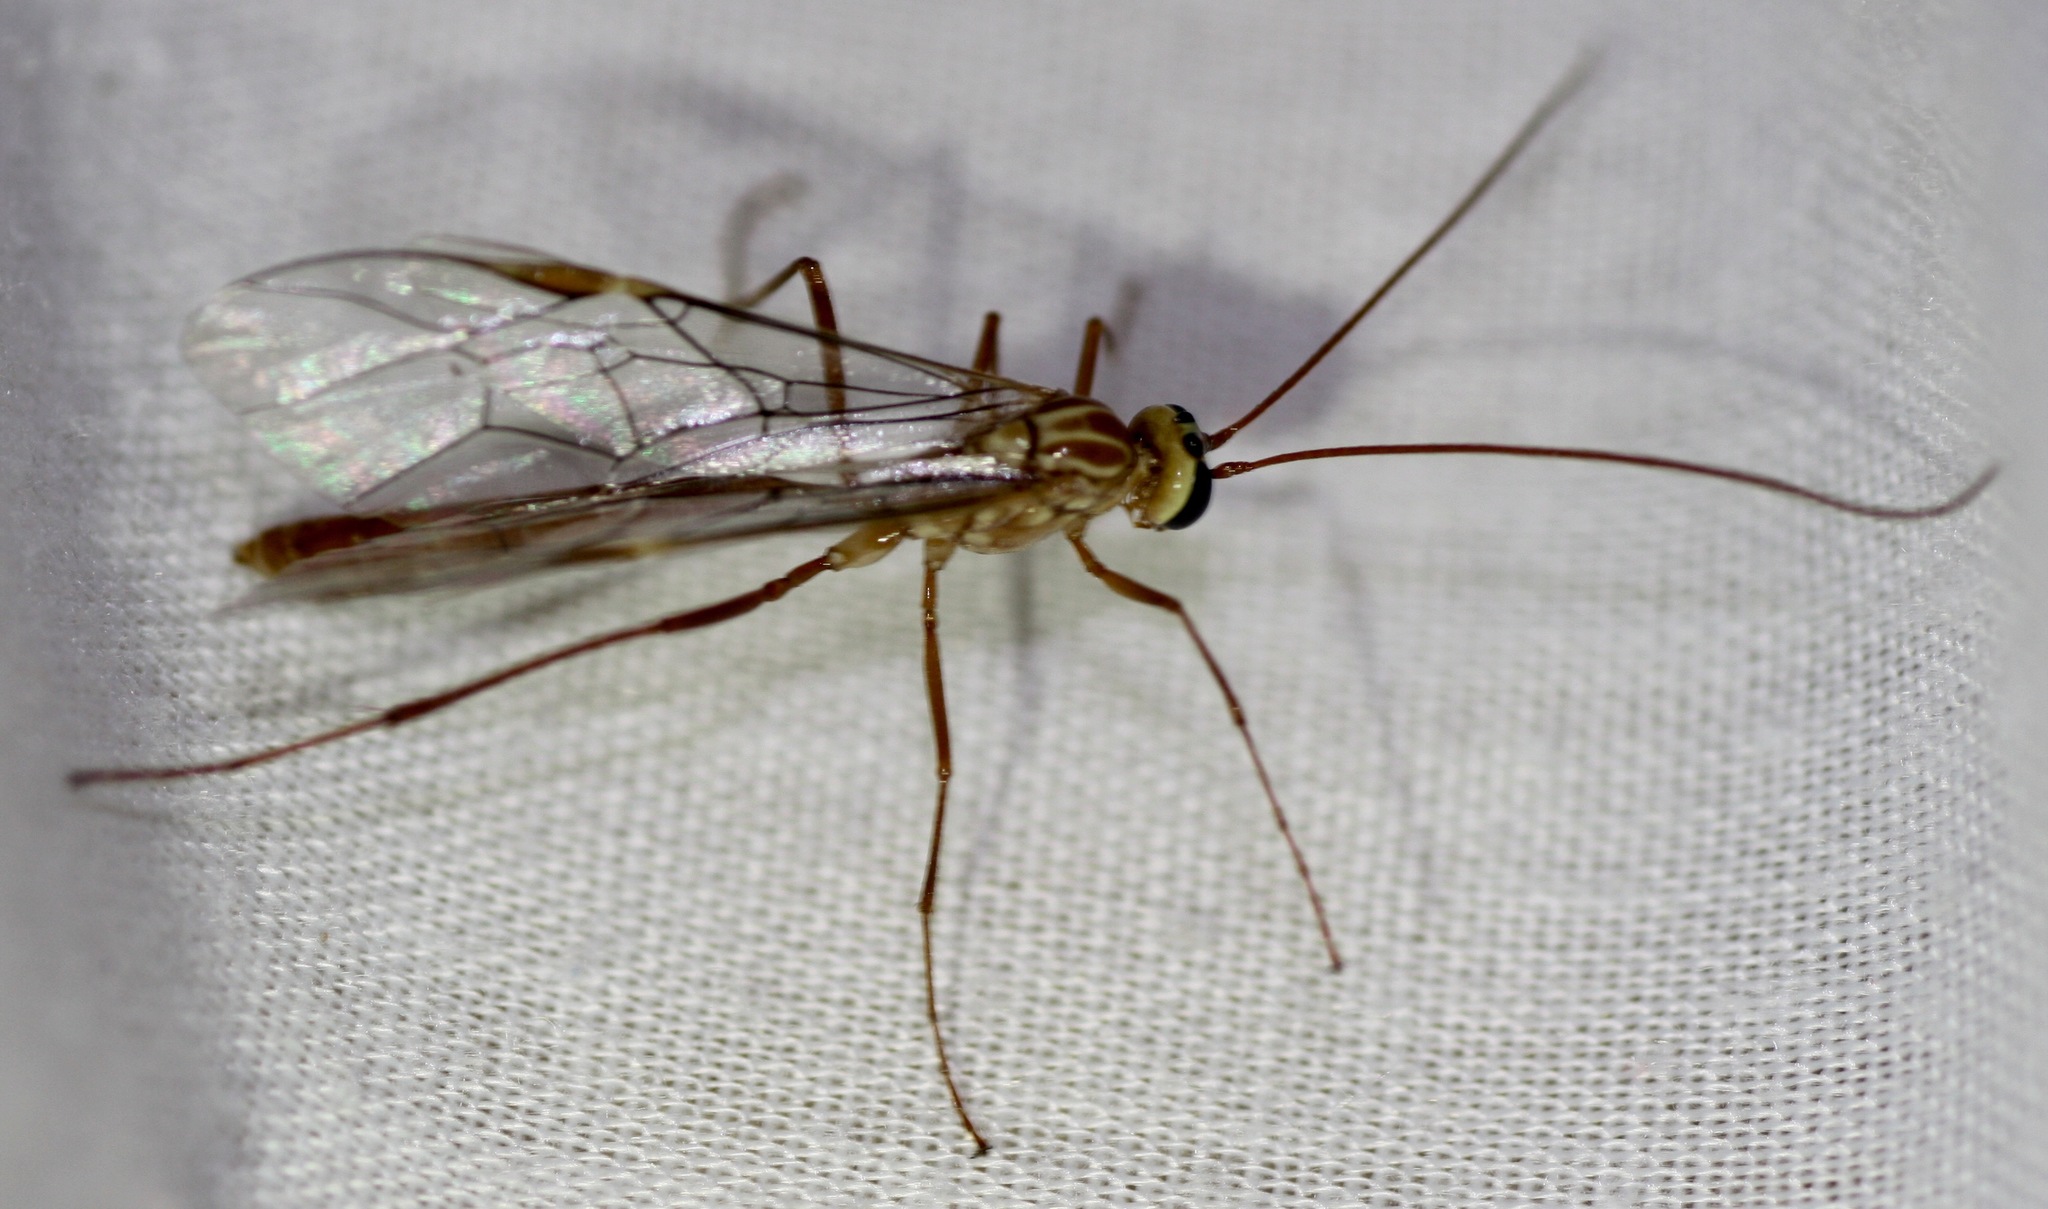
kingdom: Animalia
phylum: Arthropoda
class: Insecta
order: Hymenoptera
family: Ichneumonidae
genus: Ophion
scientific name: Ophion
